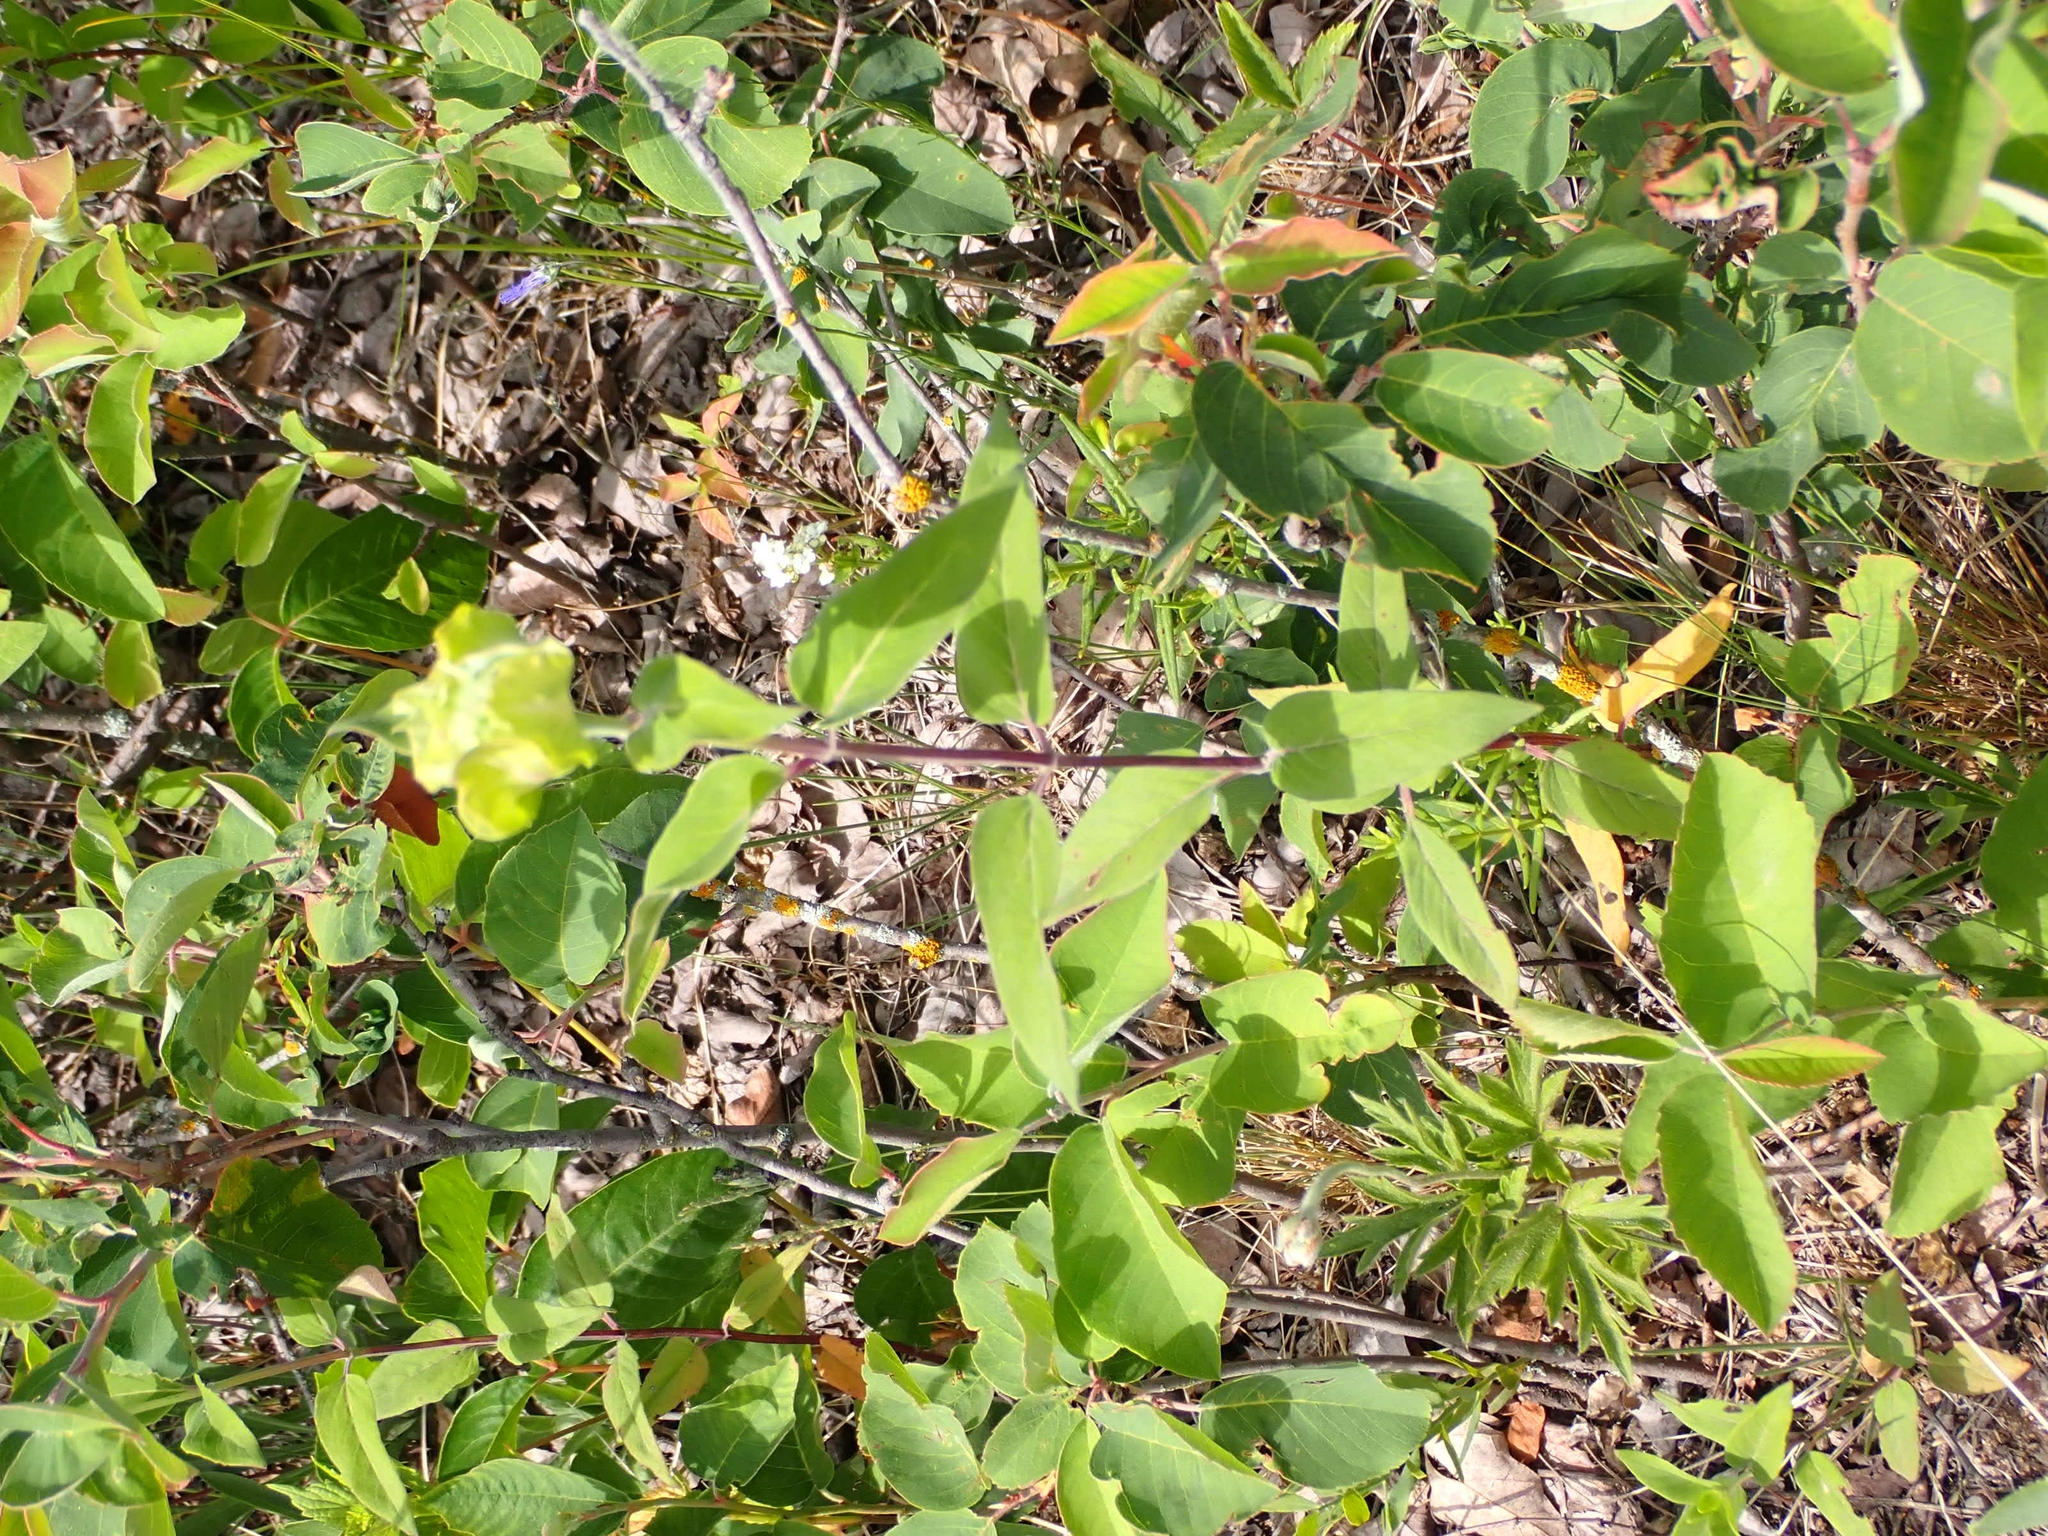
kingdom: Plantae
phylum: Tracheophyta
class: Magnoliopsida
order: Lamiales
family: Lamiaceae
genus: Monarda
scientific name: Monarda fistulosa
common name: Purple beebalm
